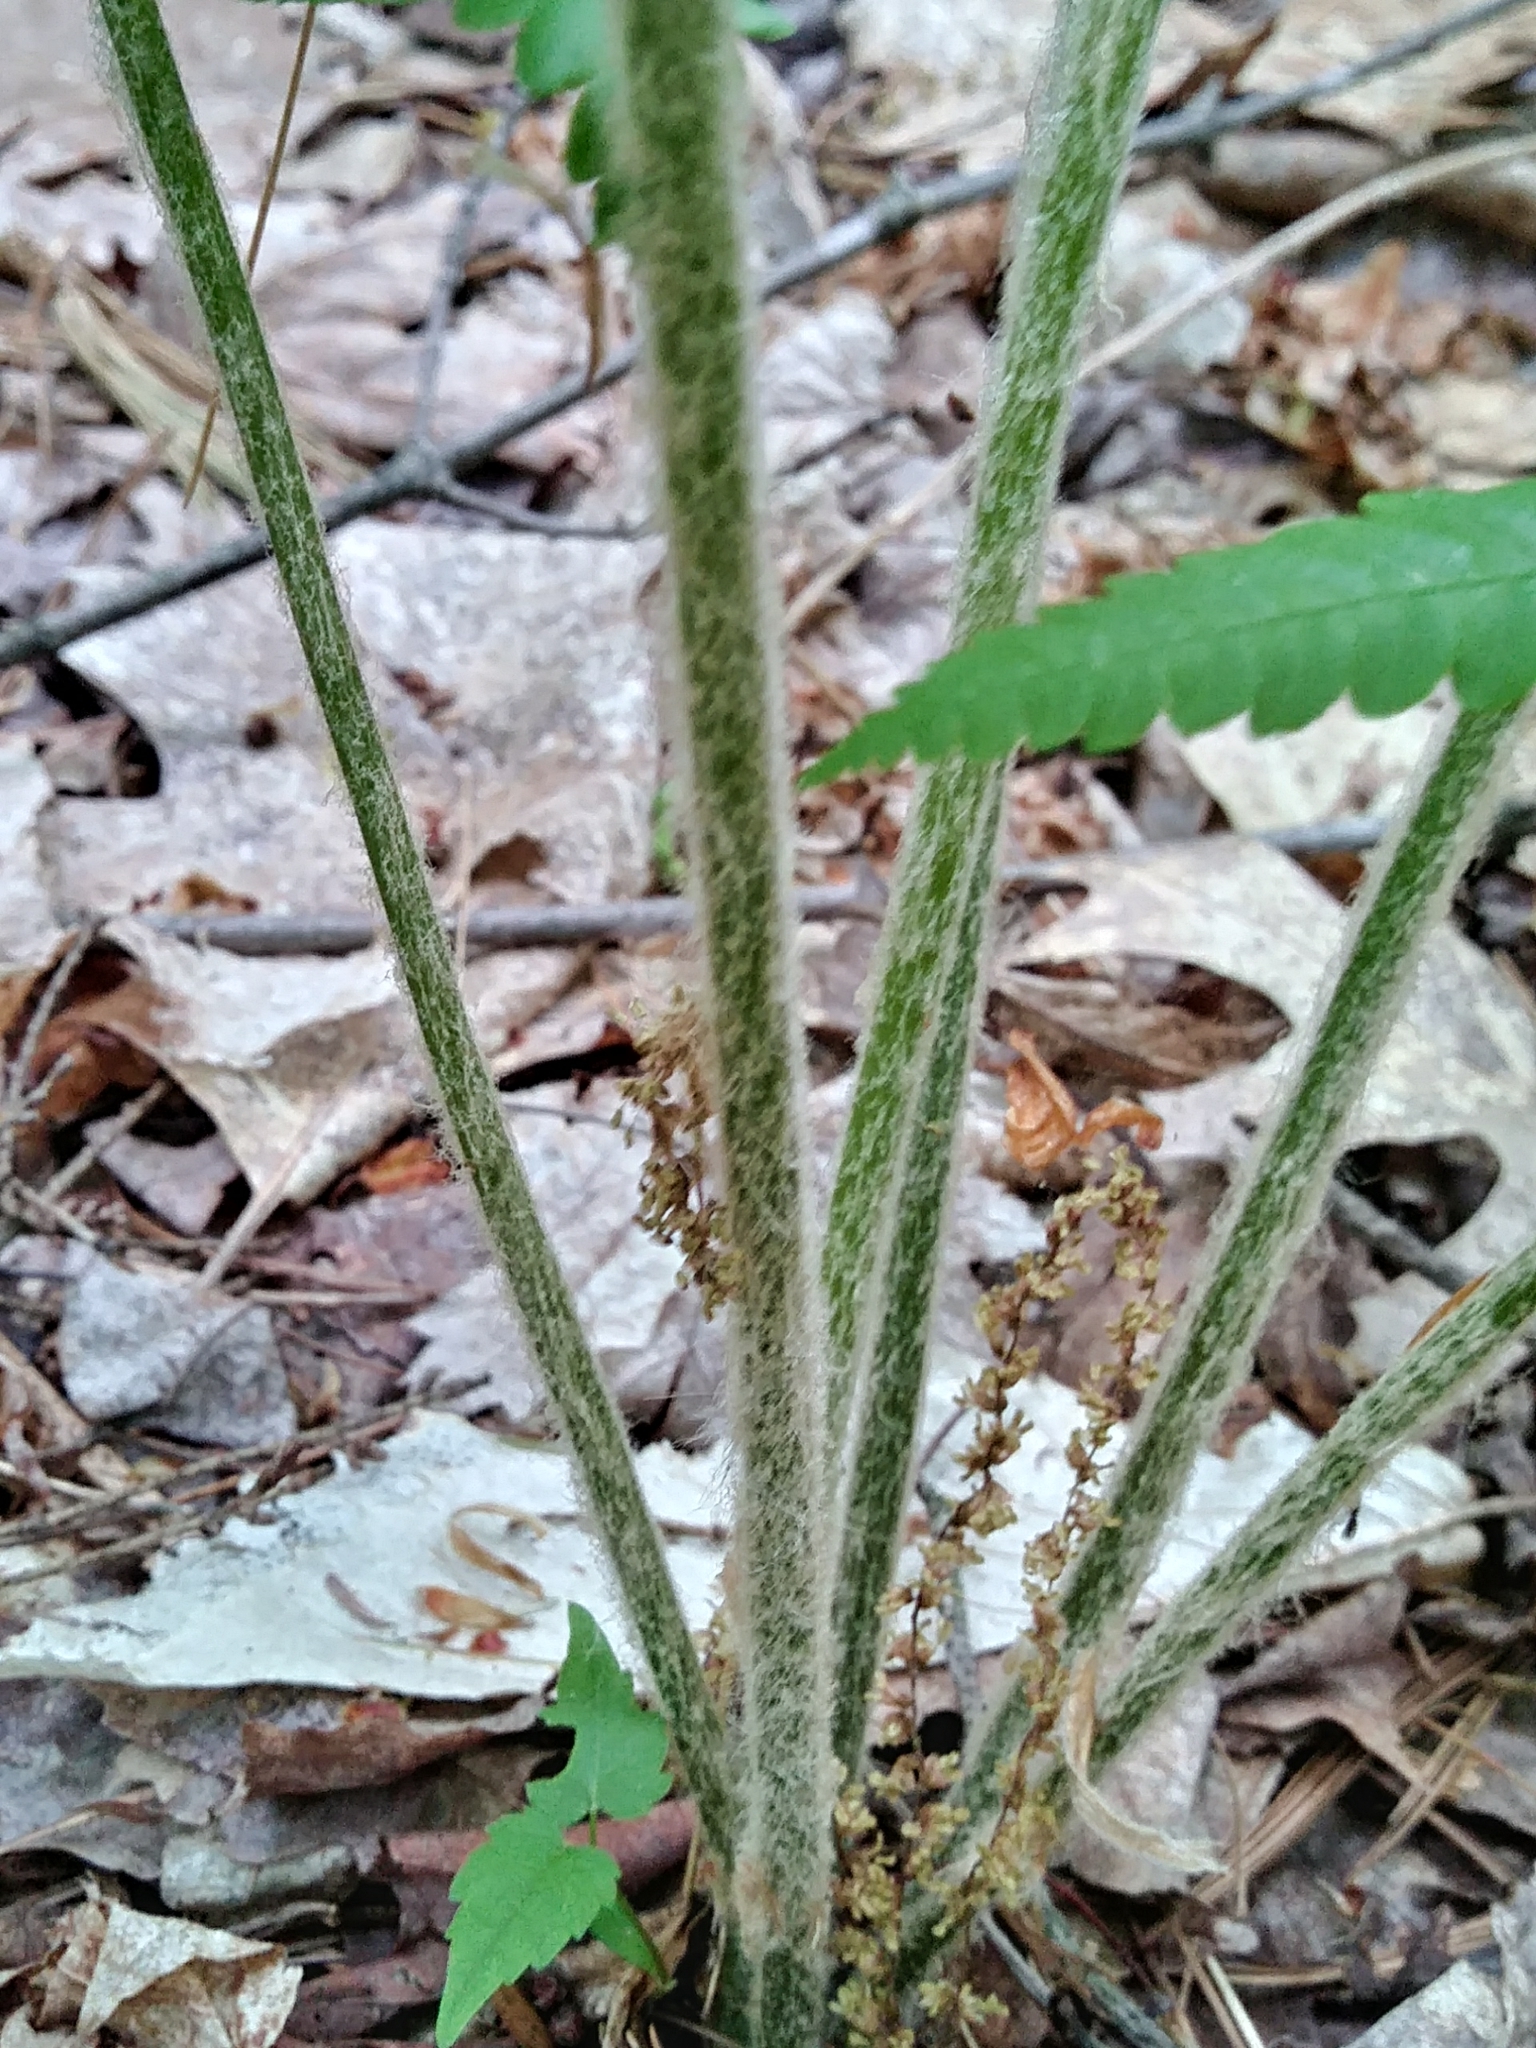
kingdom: Plantae
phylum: Tracheophyta
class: Polypodiopsida
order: Osmundales
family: Osmundaceae
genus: Osmundastrum
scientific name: Osmundastrum cinnamomeum
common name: Cinnamon fern
